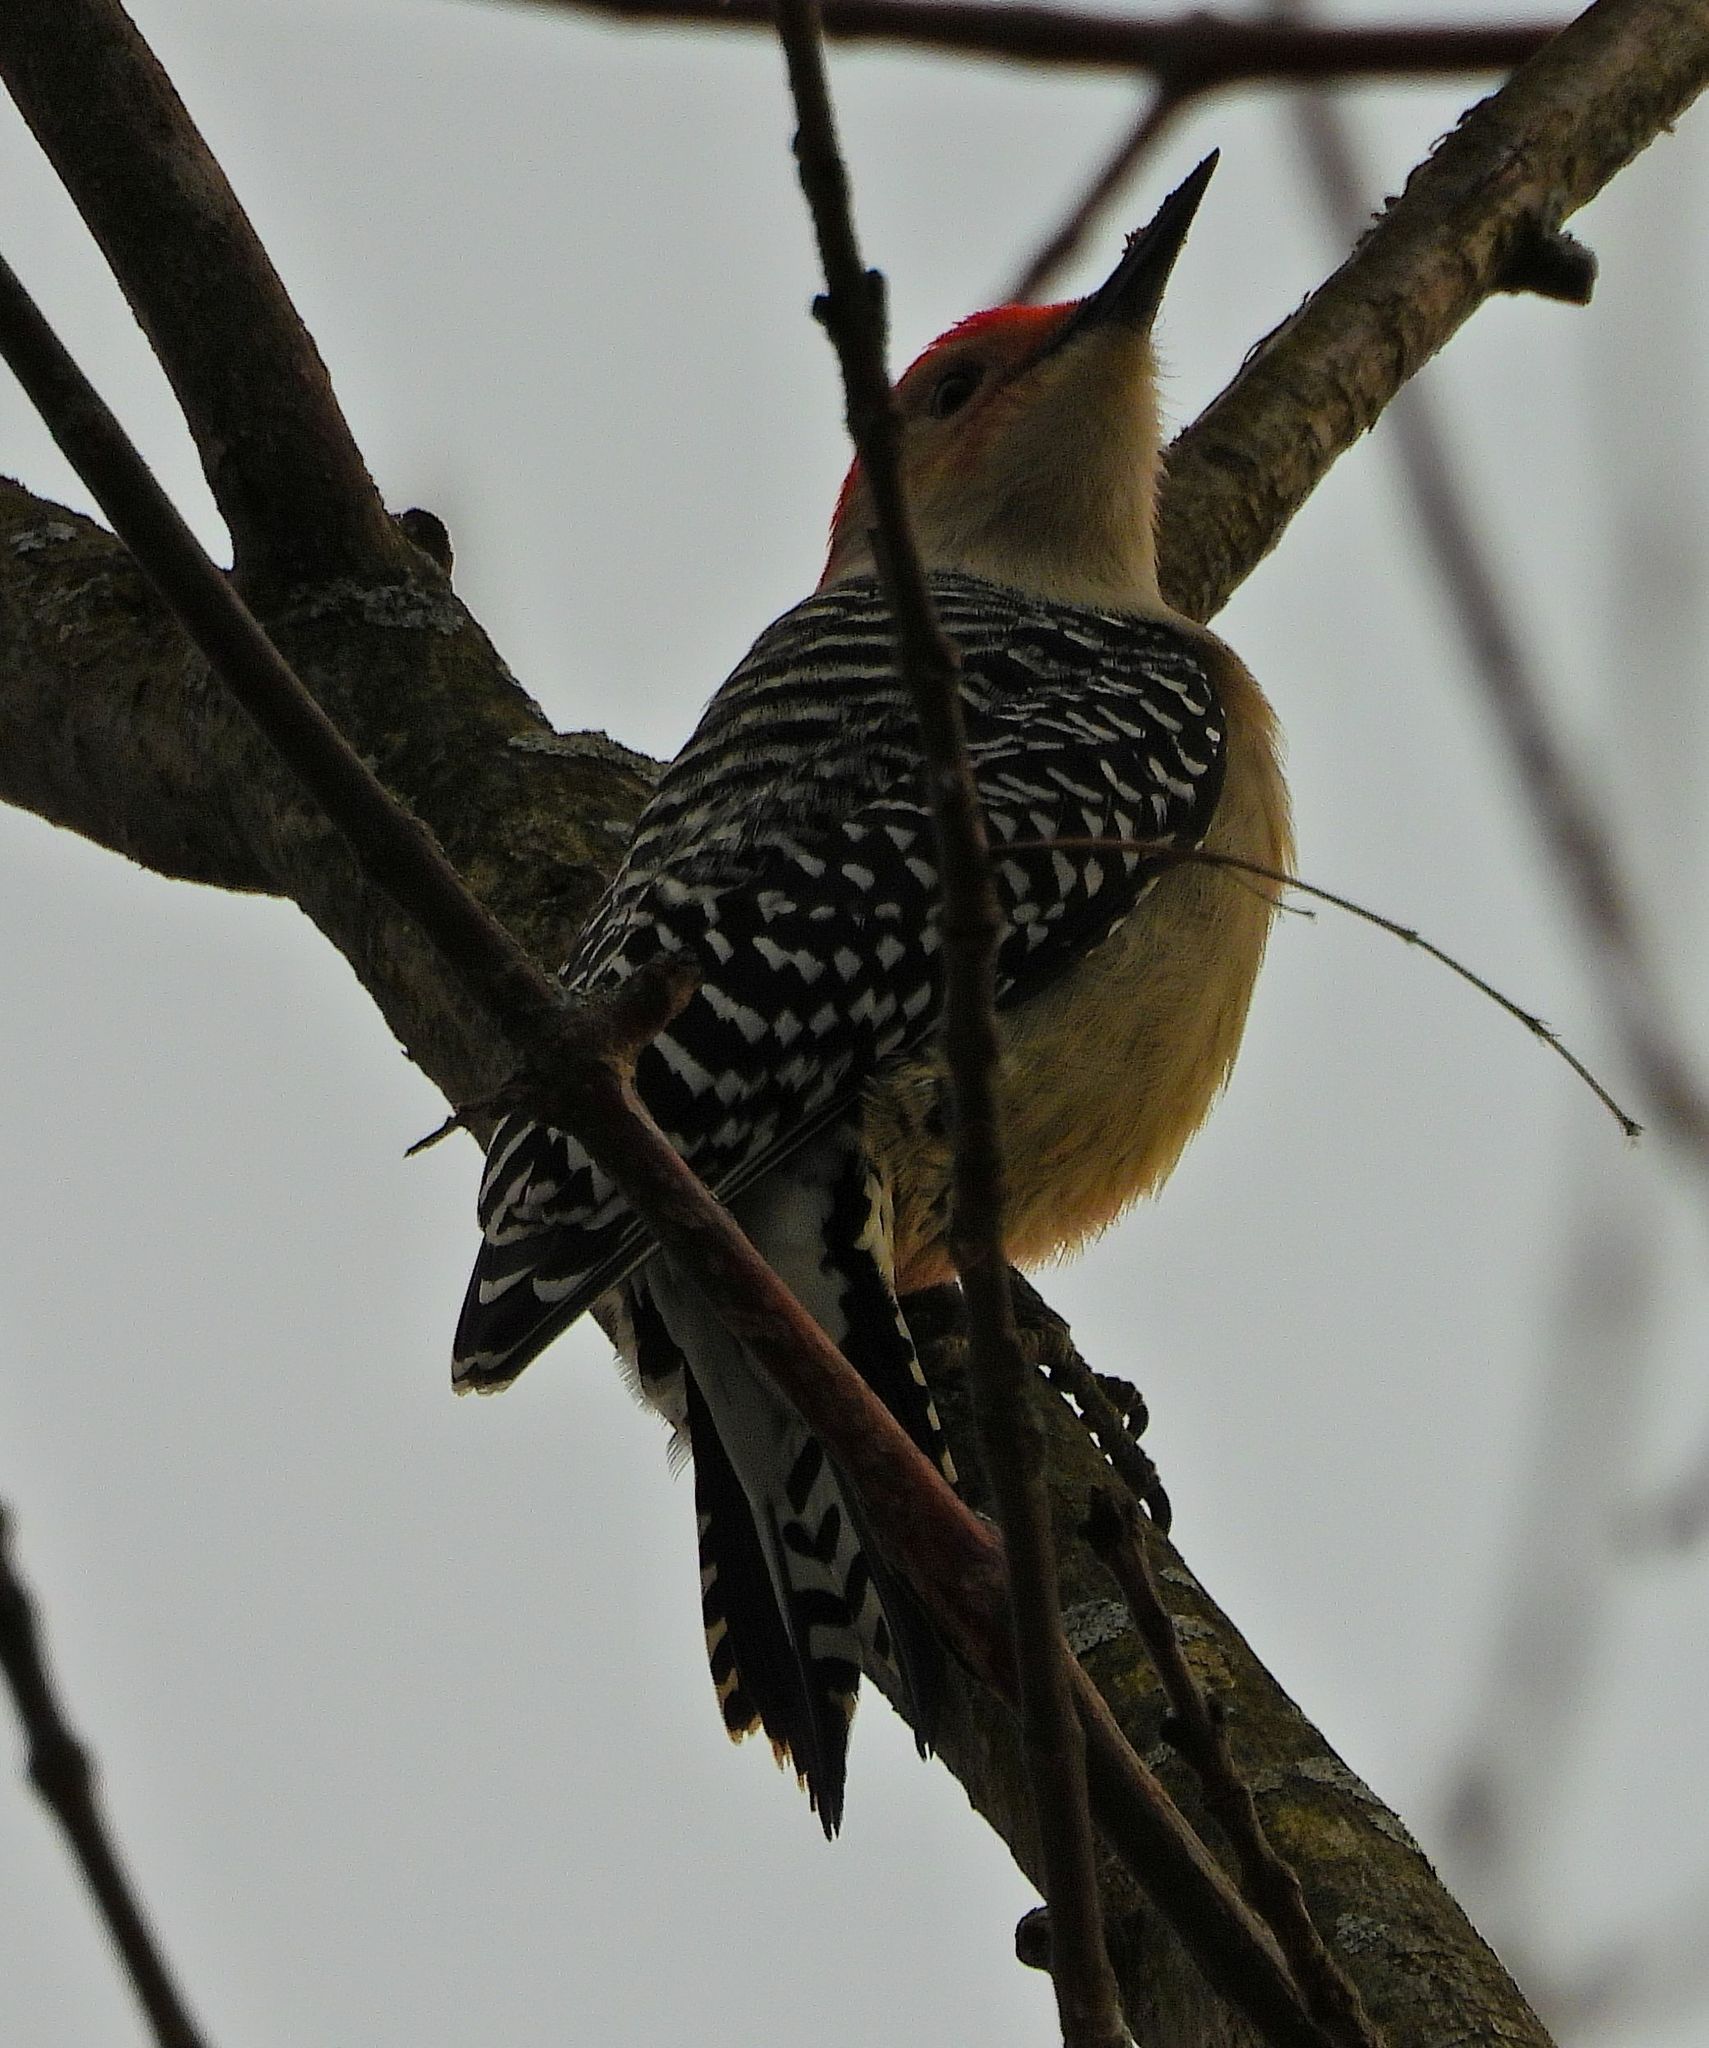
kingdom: Animalia
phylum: Chordata
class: Aves
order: Piciformes
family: Picidae
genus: Melanerpes
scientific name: Melanerpes carolinus
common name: Red-bellied woodpecker
